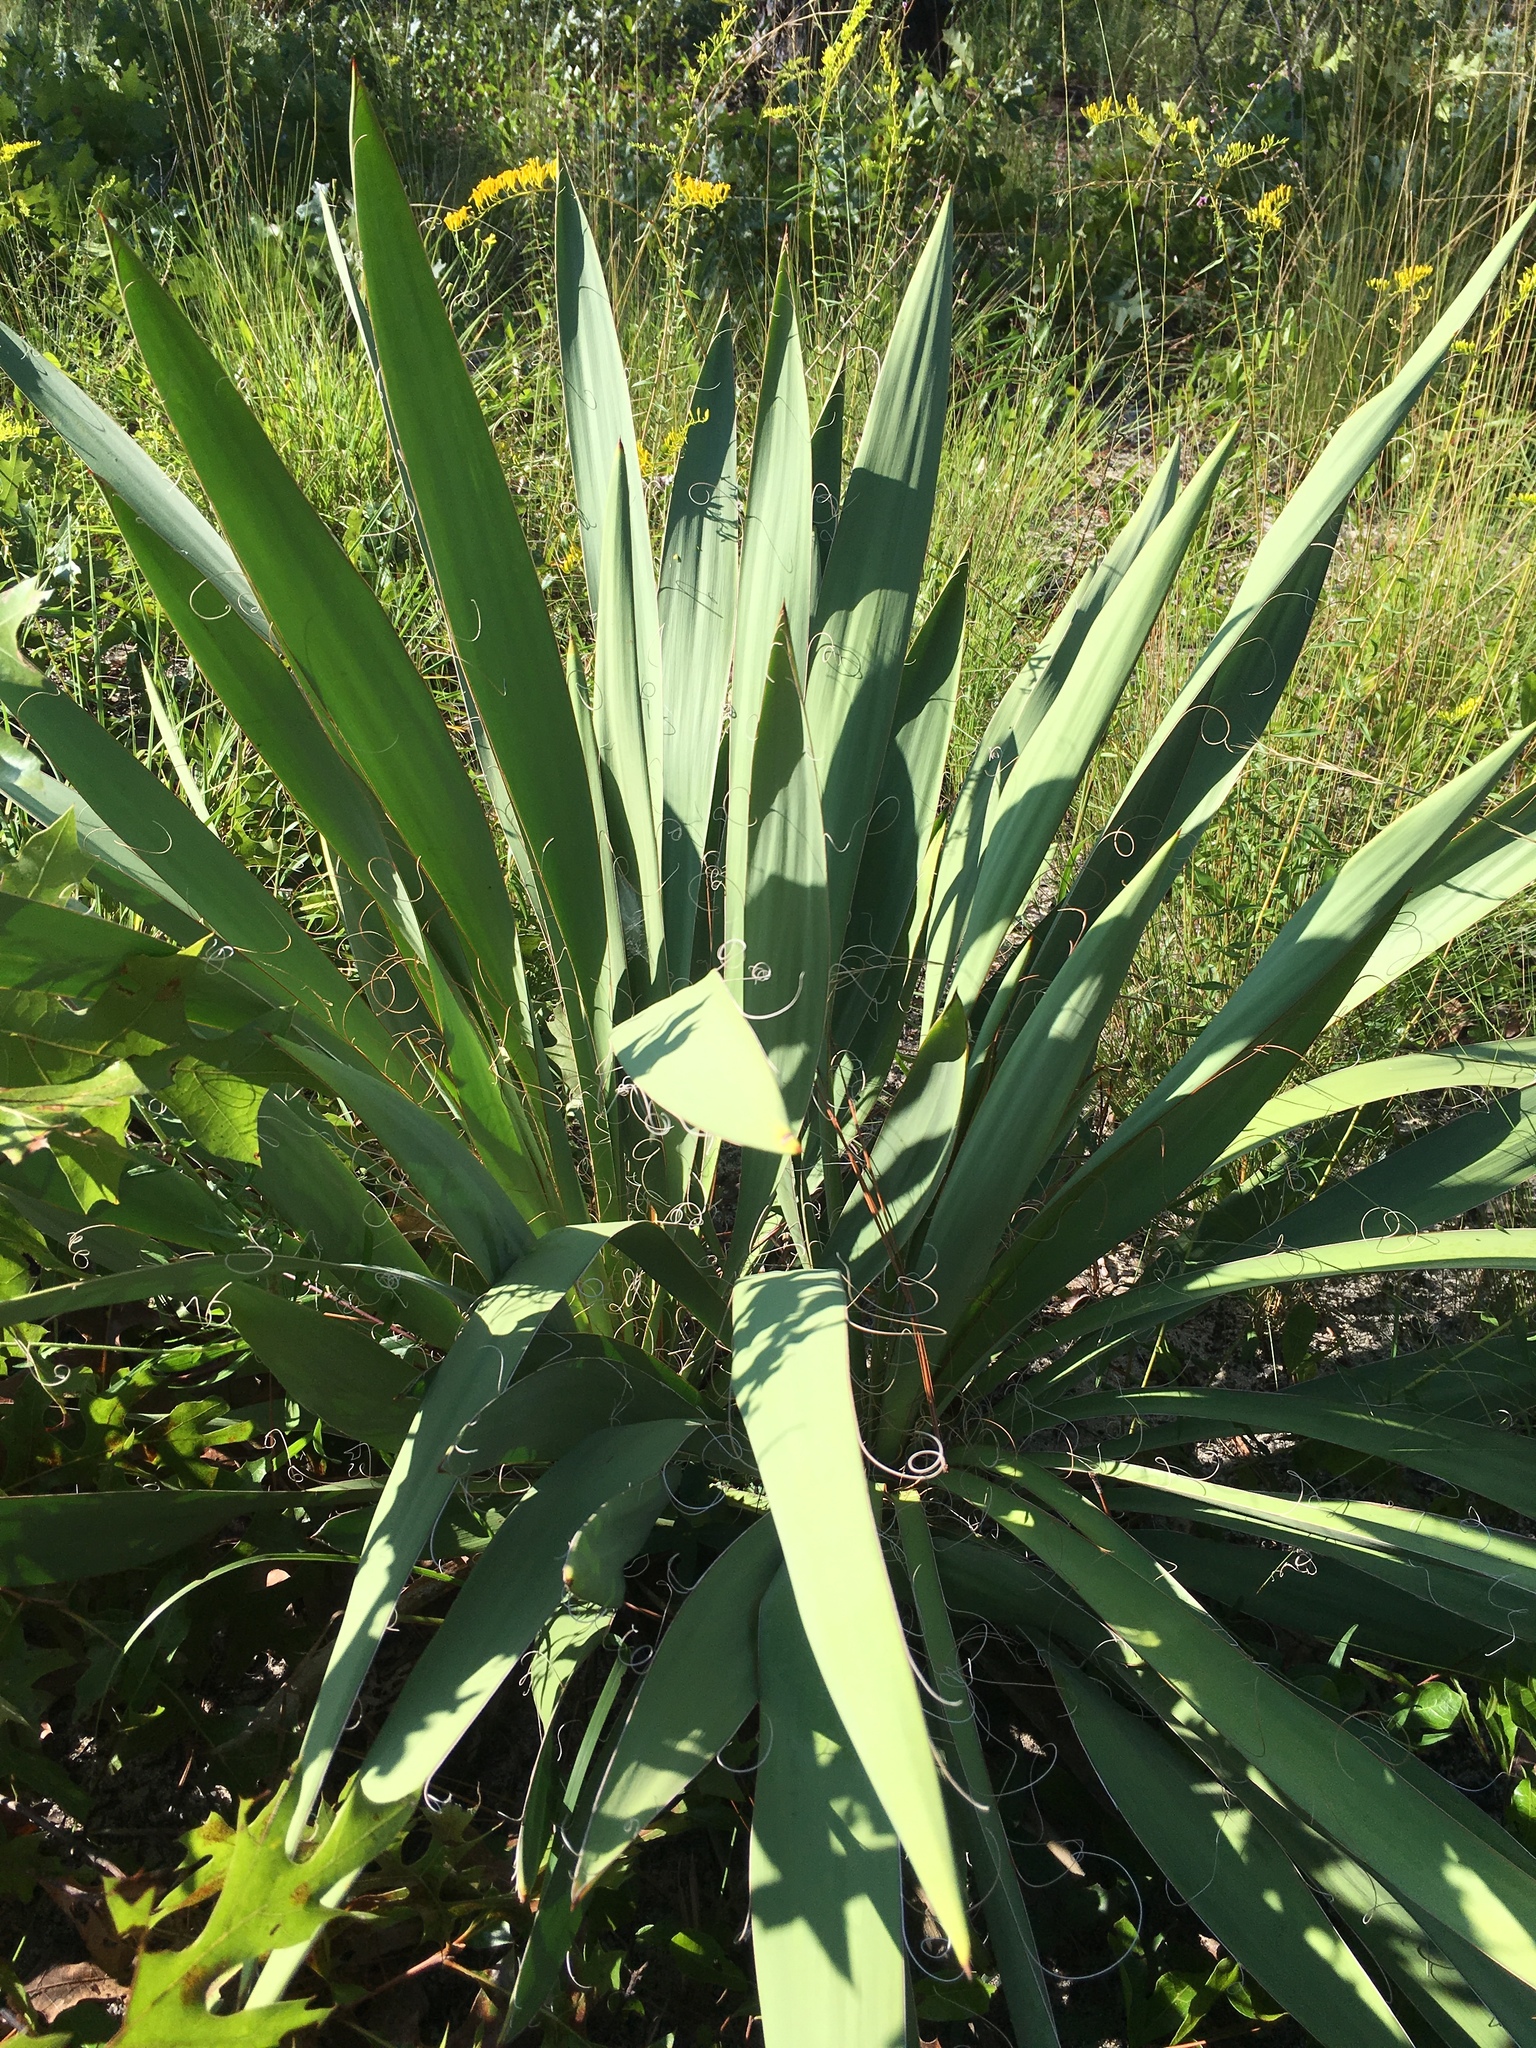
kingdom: Plantae
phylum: Tracheophyta
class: Liliopsida
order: Asparagales
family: Asparagaceae
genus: Yucca
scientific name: Yucca filamentosa
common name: Adam's-needle
